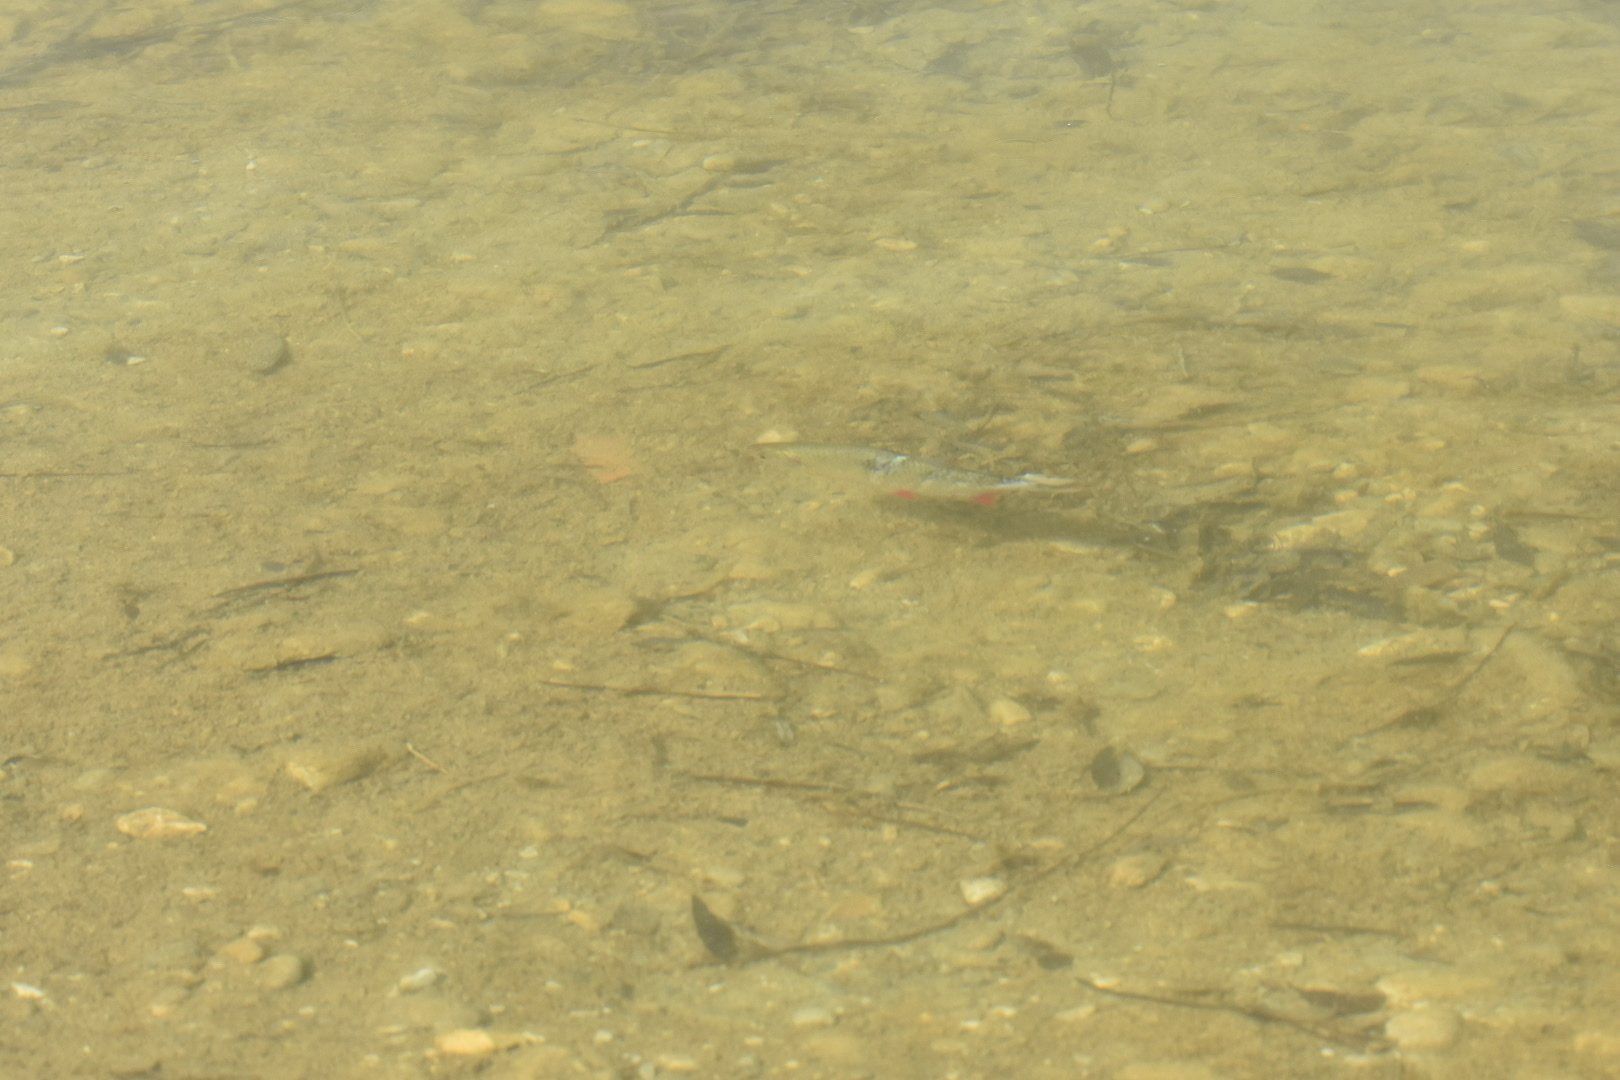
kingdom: Animalia
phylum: Chordata
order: Cypriniformes
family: Cyprinidae
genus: Scardinius
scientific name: Scardinius erythrophthalmus
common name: Rudd
